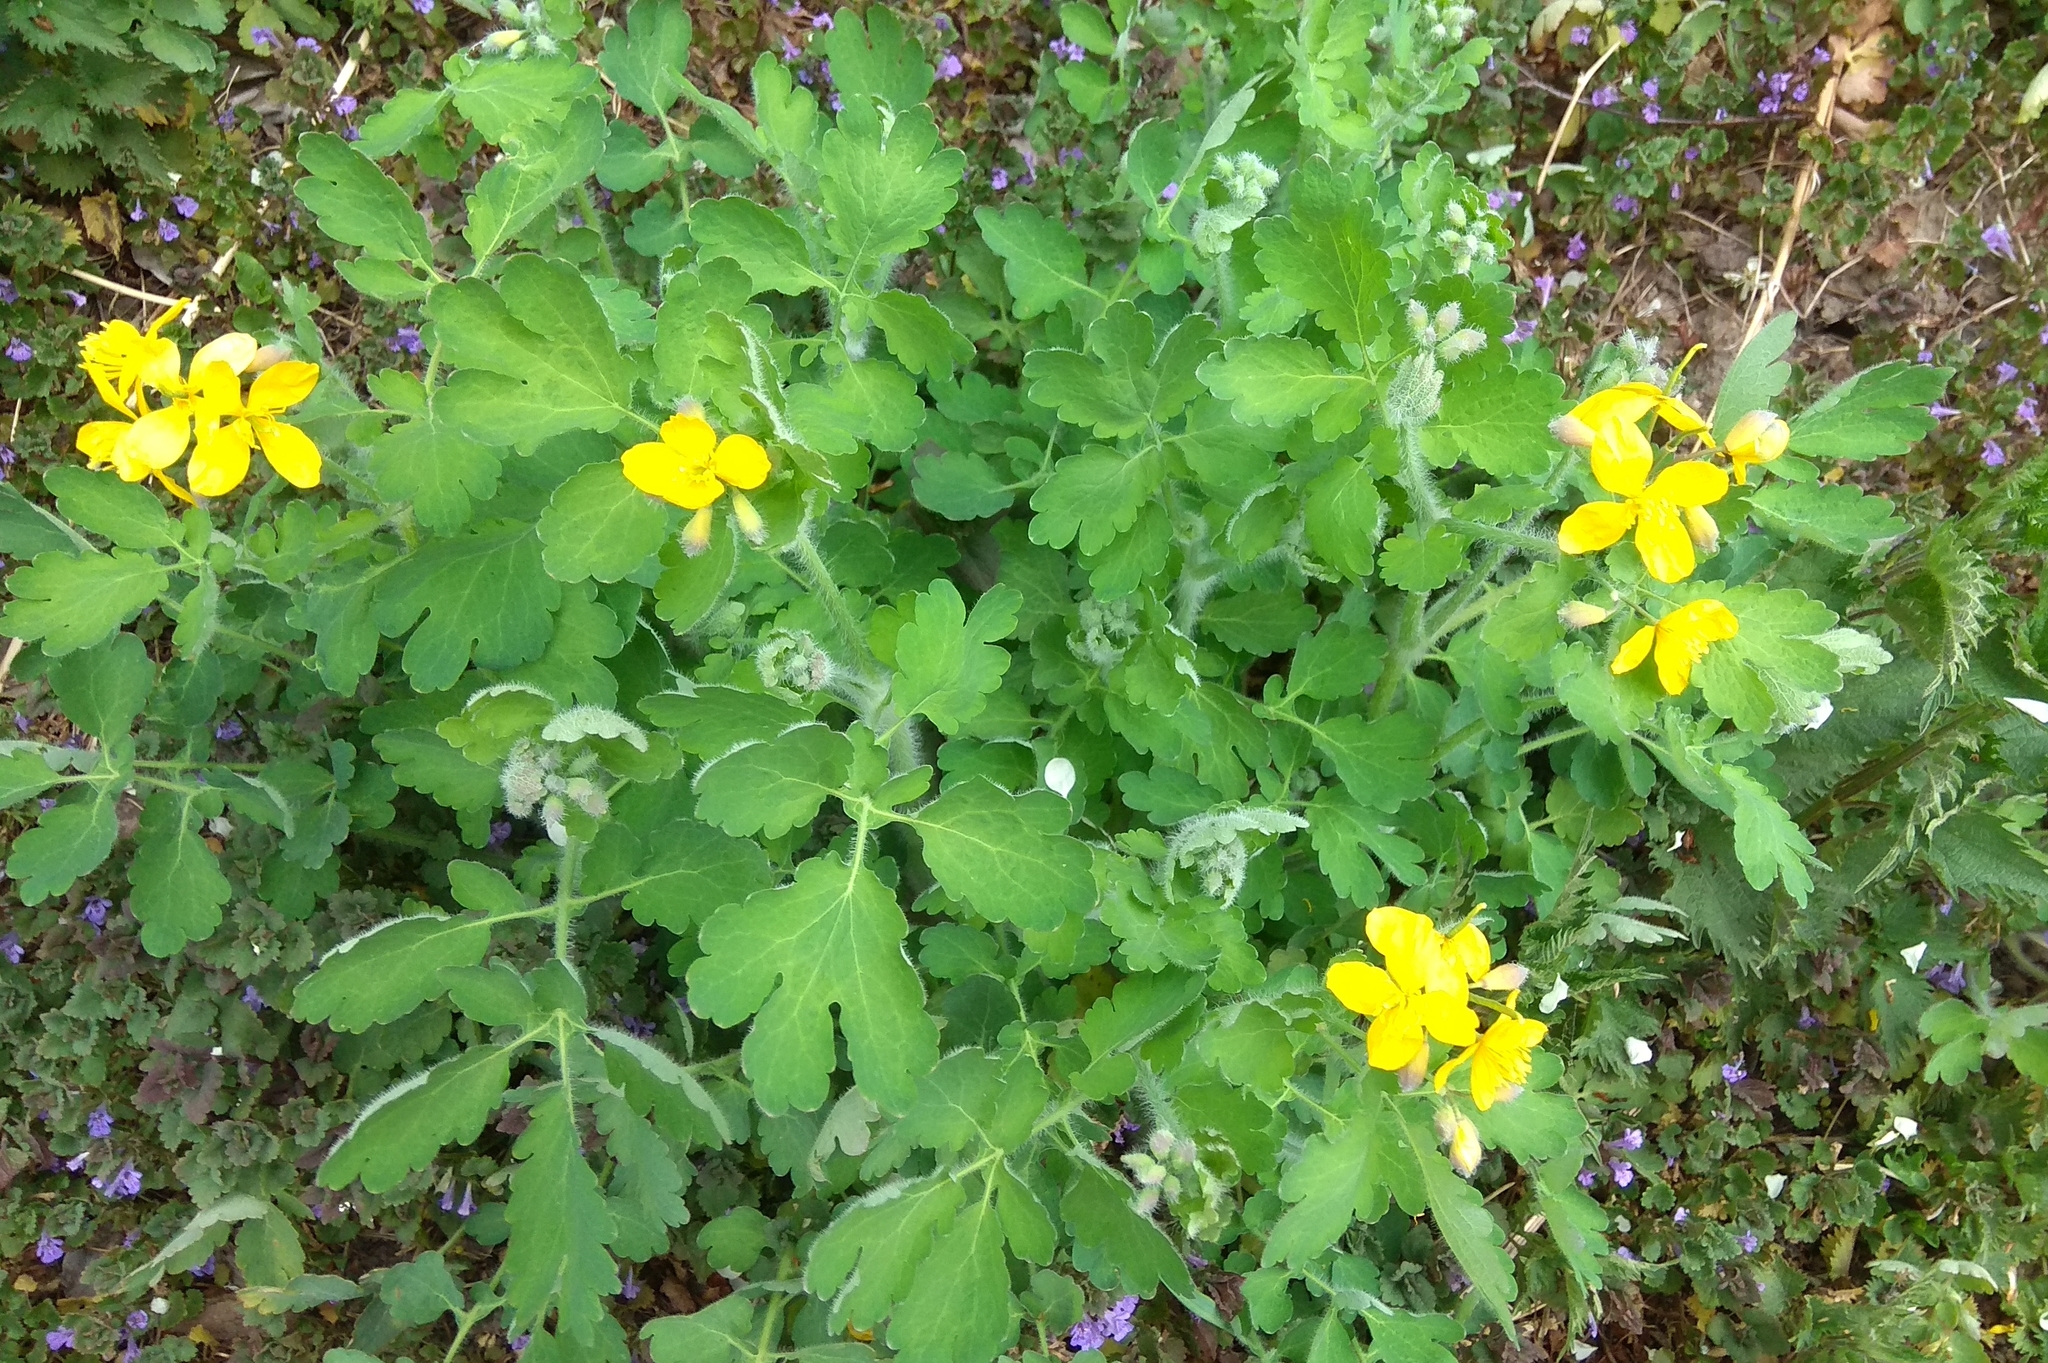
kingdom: Plantae
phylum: Tracheophyta
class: Magnoliopsida
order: Ranunculales
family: Papaveraceae
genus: Chelidonium
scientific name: Chelidonium majus
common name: Greater celandine
